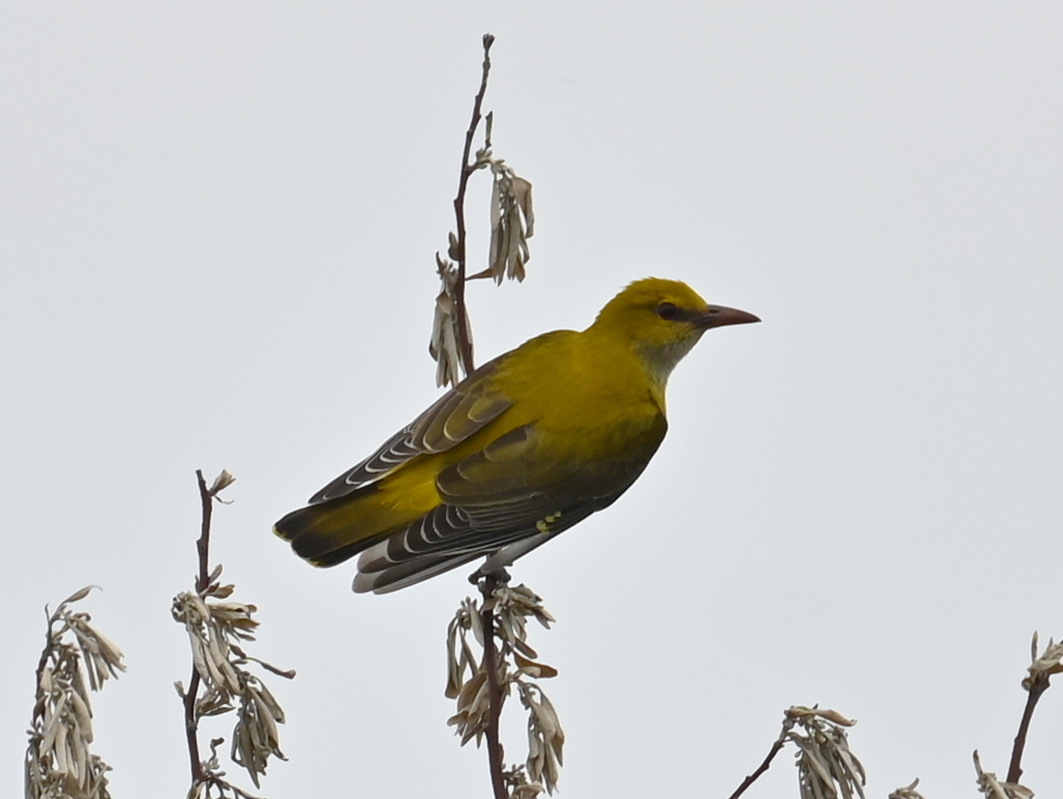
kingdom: Animalia
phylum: Chordata
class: Aves
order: Passeriformes
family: Oriolidae
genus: Oriolus
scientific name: Oriolus oriolus
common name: Eurasian golden oriole
